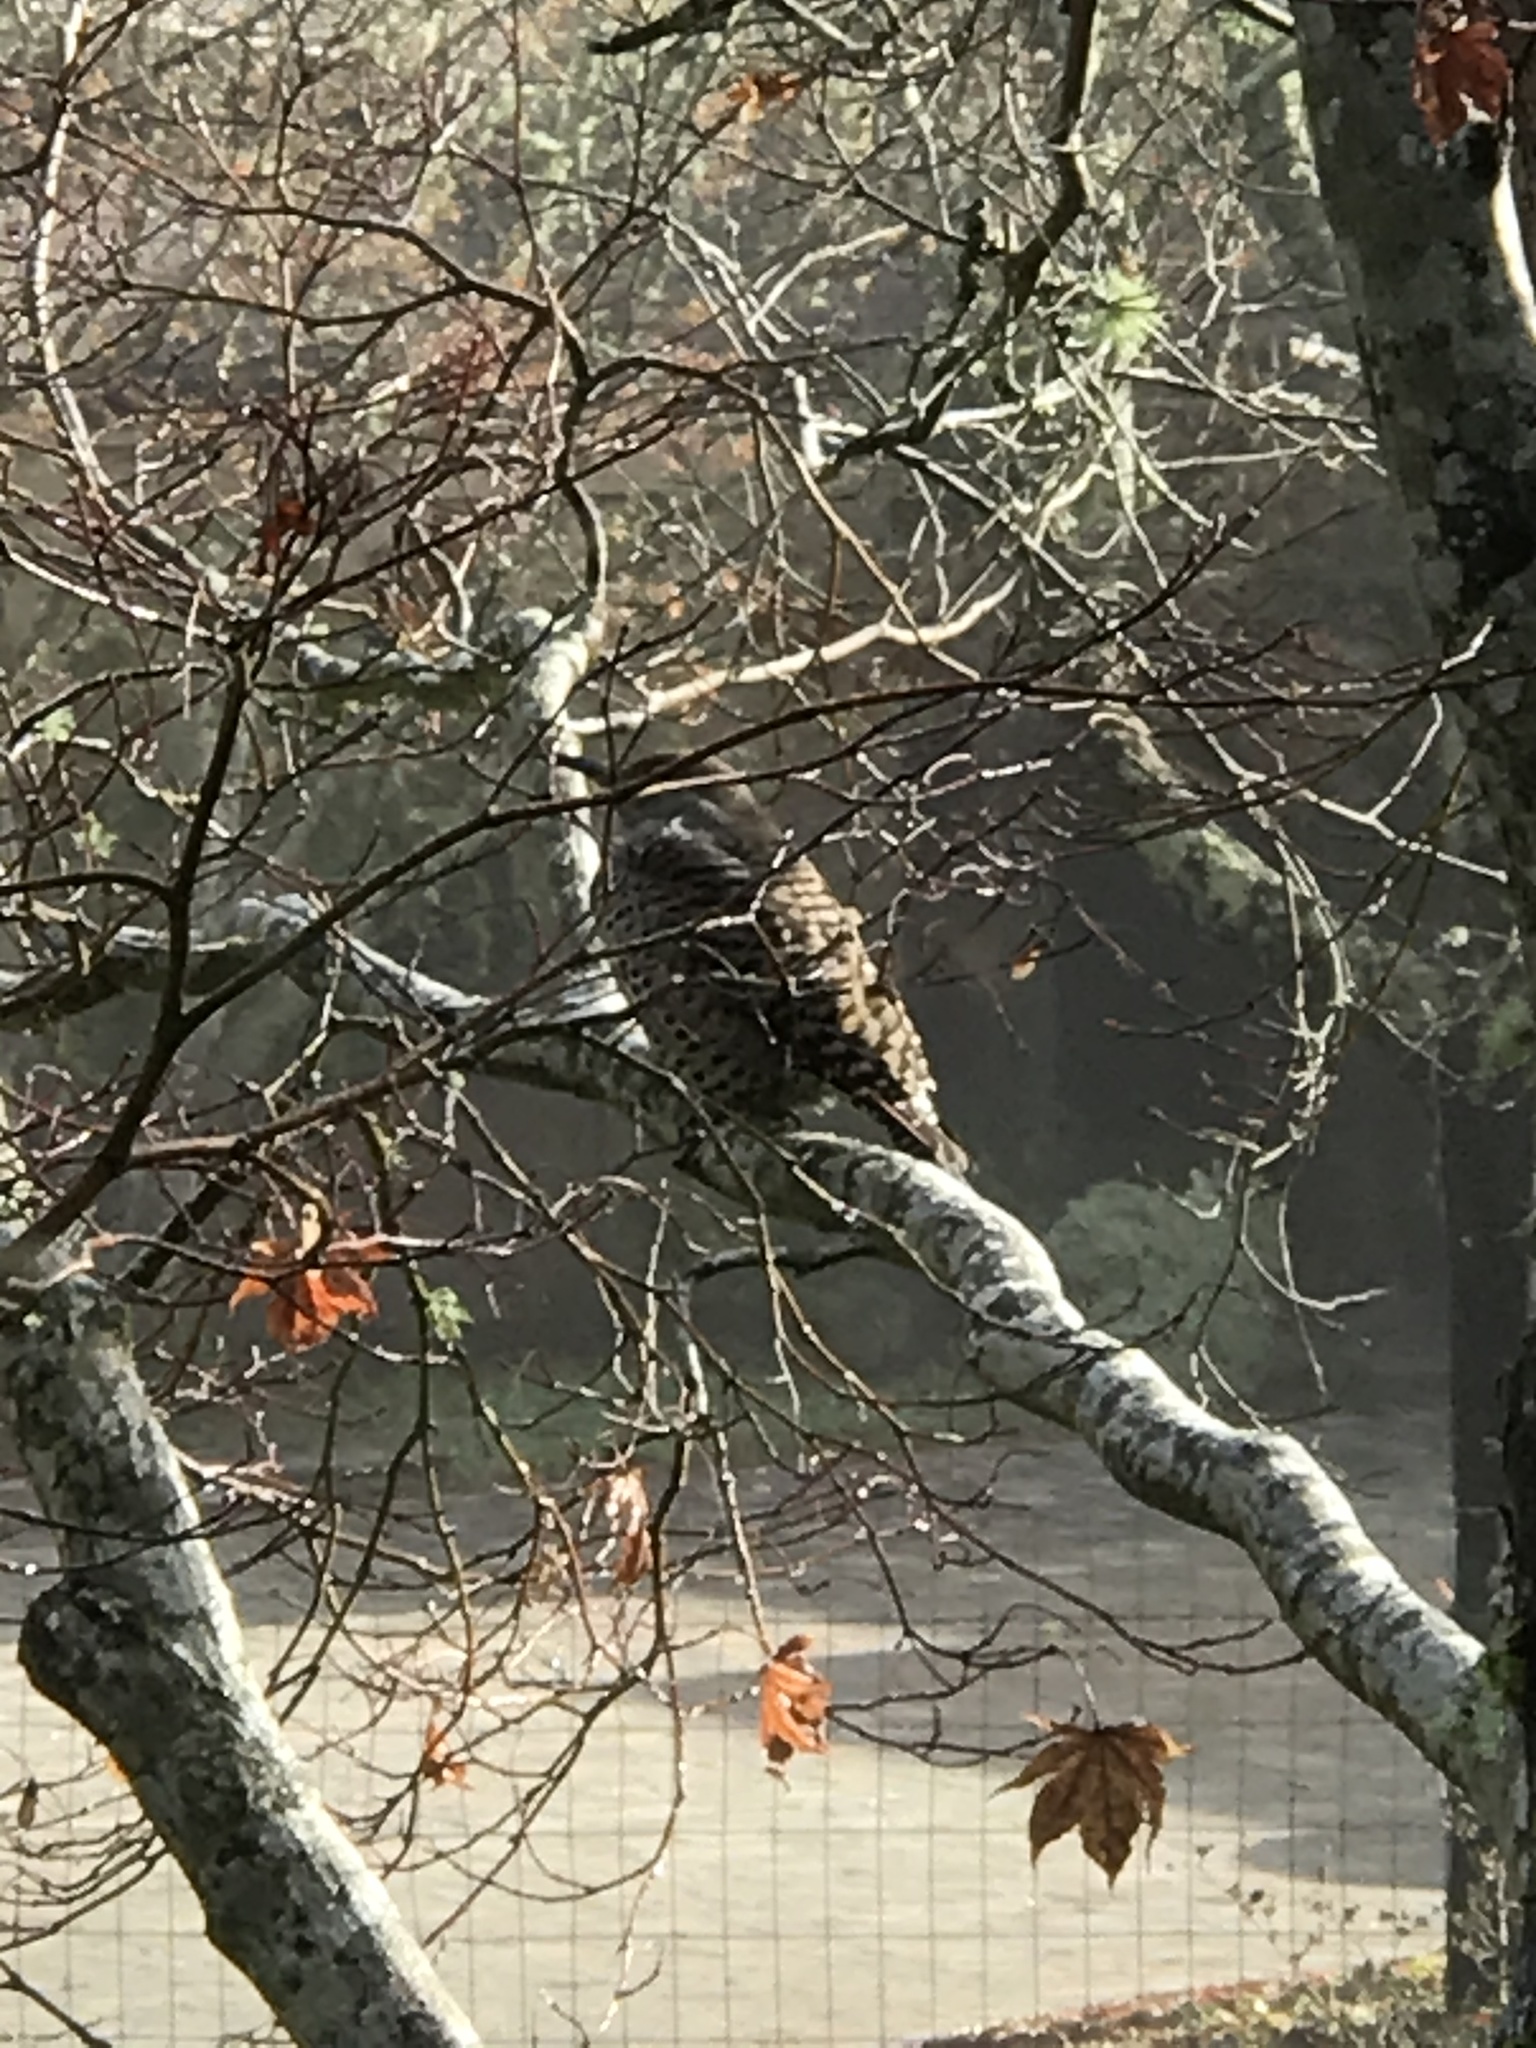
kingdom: Animalia
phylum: Chordata
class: Aves
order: Piciformes
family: Picidae
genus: Colaptes
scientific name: Colaptes auratus
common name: Northern flicker
